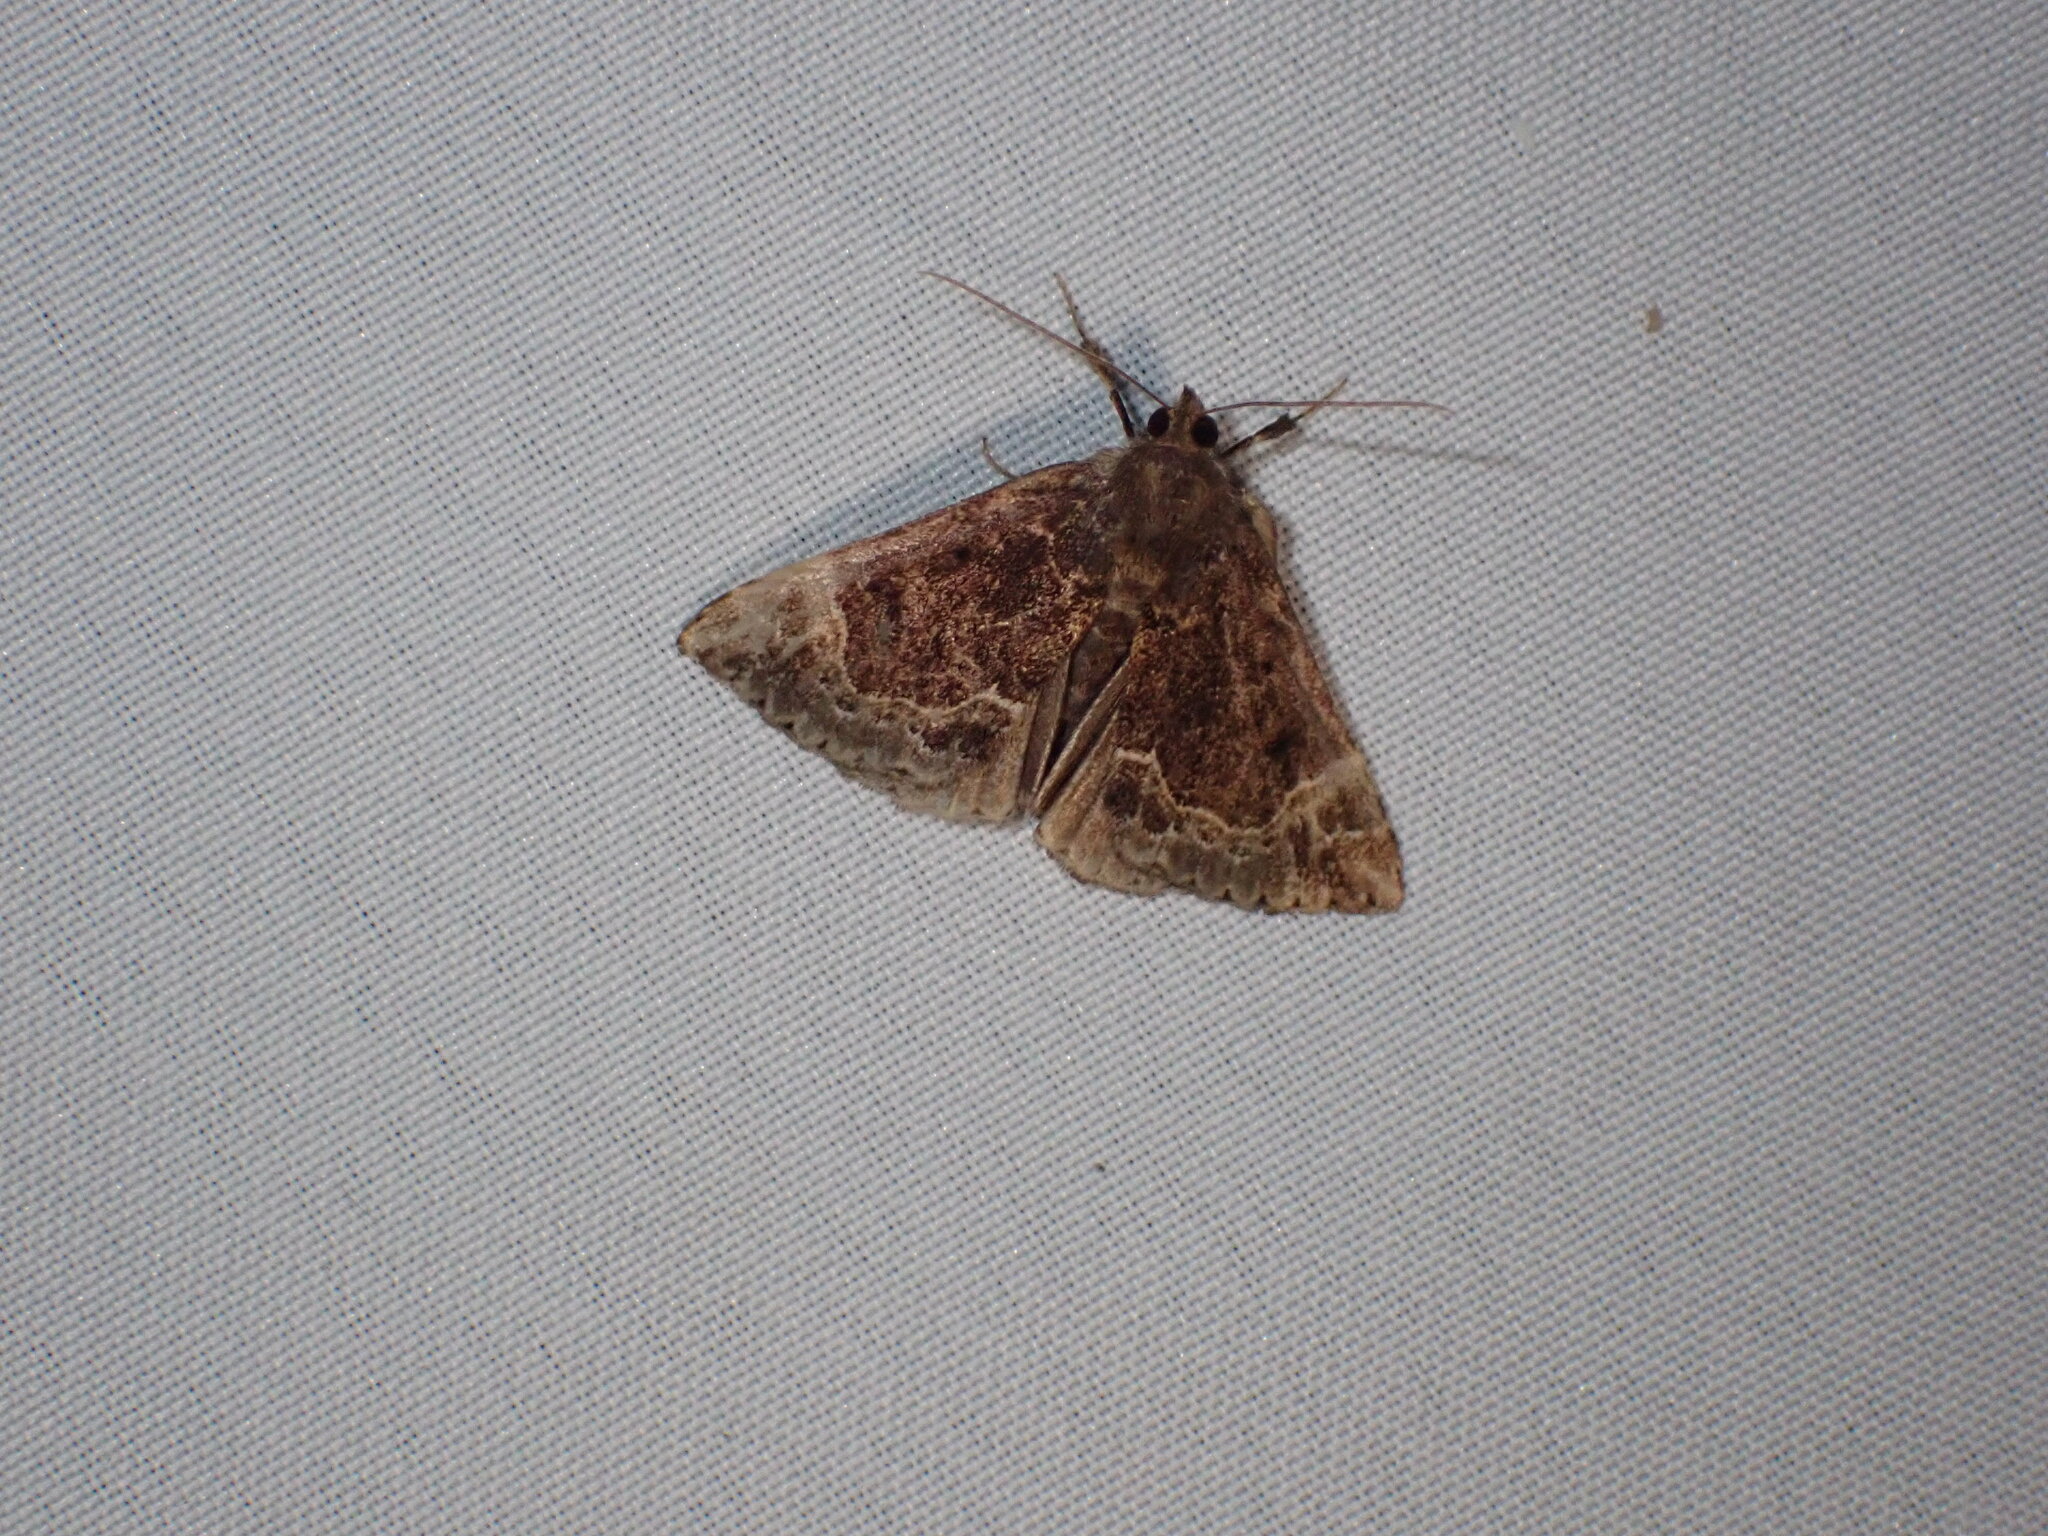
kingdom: Animalia
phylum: Arthropoda
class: Insecta
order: Lepidoptera
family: Erebidae
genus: Hypena
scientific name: Hypena abalienalis
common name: White-lined snout
